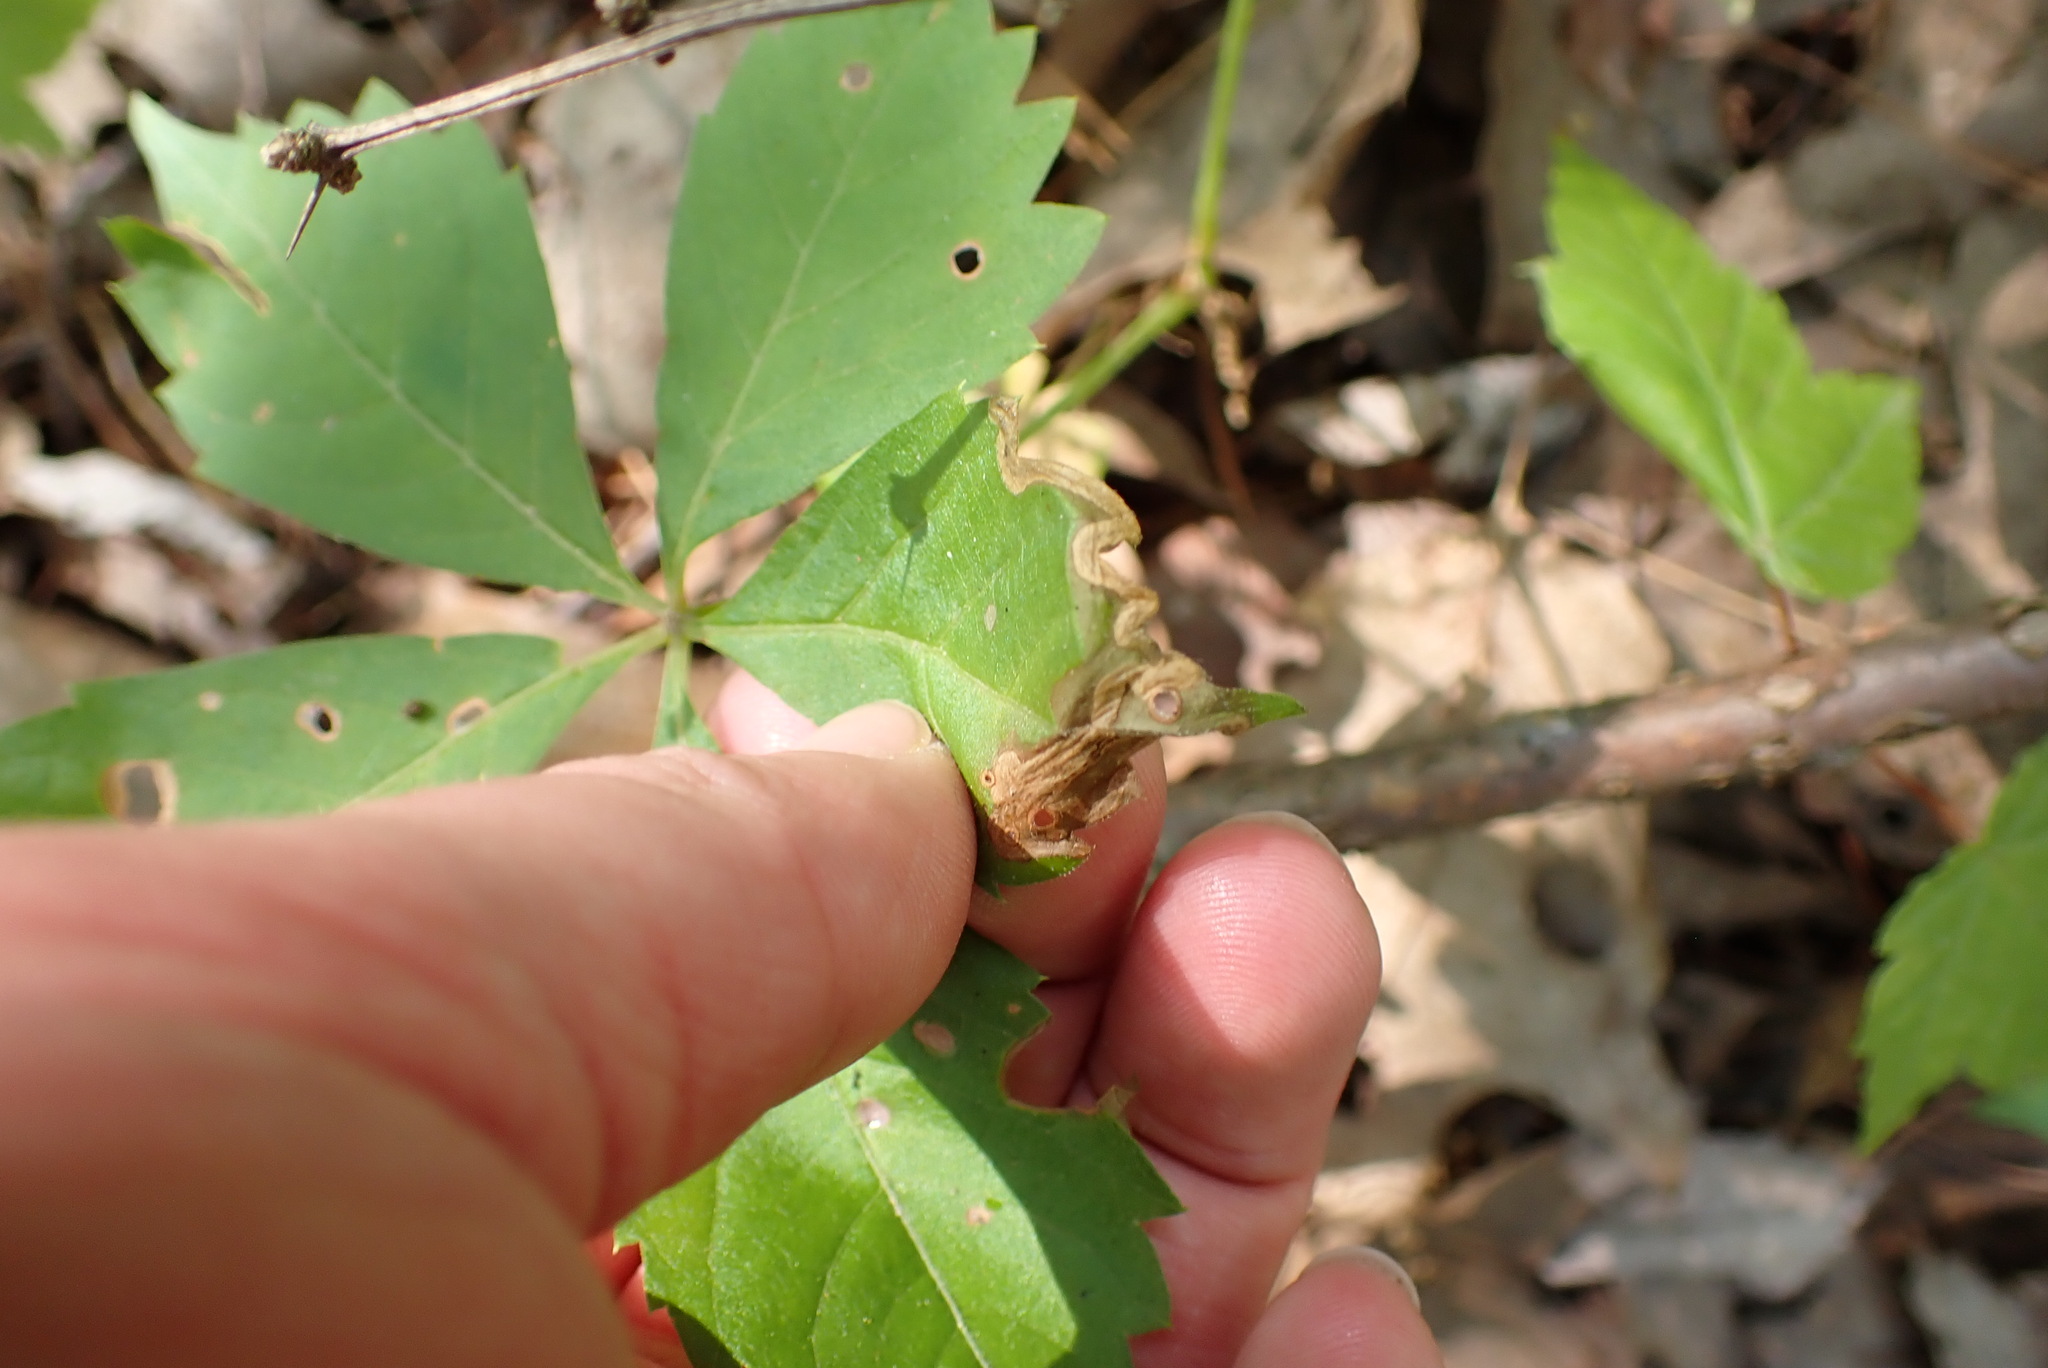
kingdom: Animalia
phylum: Arthropoda
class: Insecta
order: Coleoptera
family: Curculionidae
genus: Orchestomerus
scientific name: Orchestomerus eisemani
